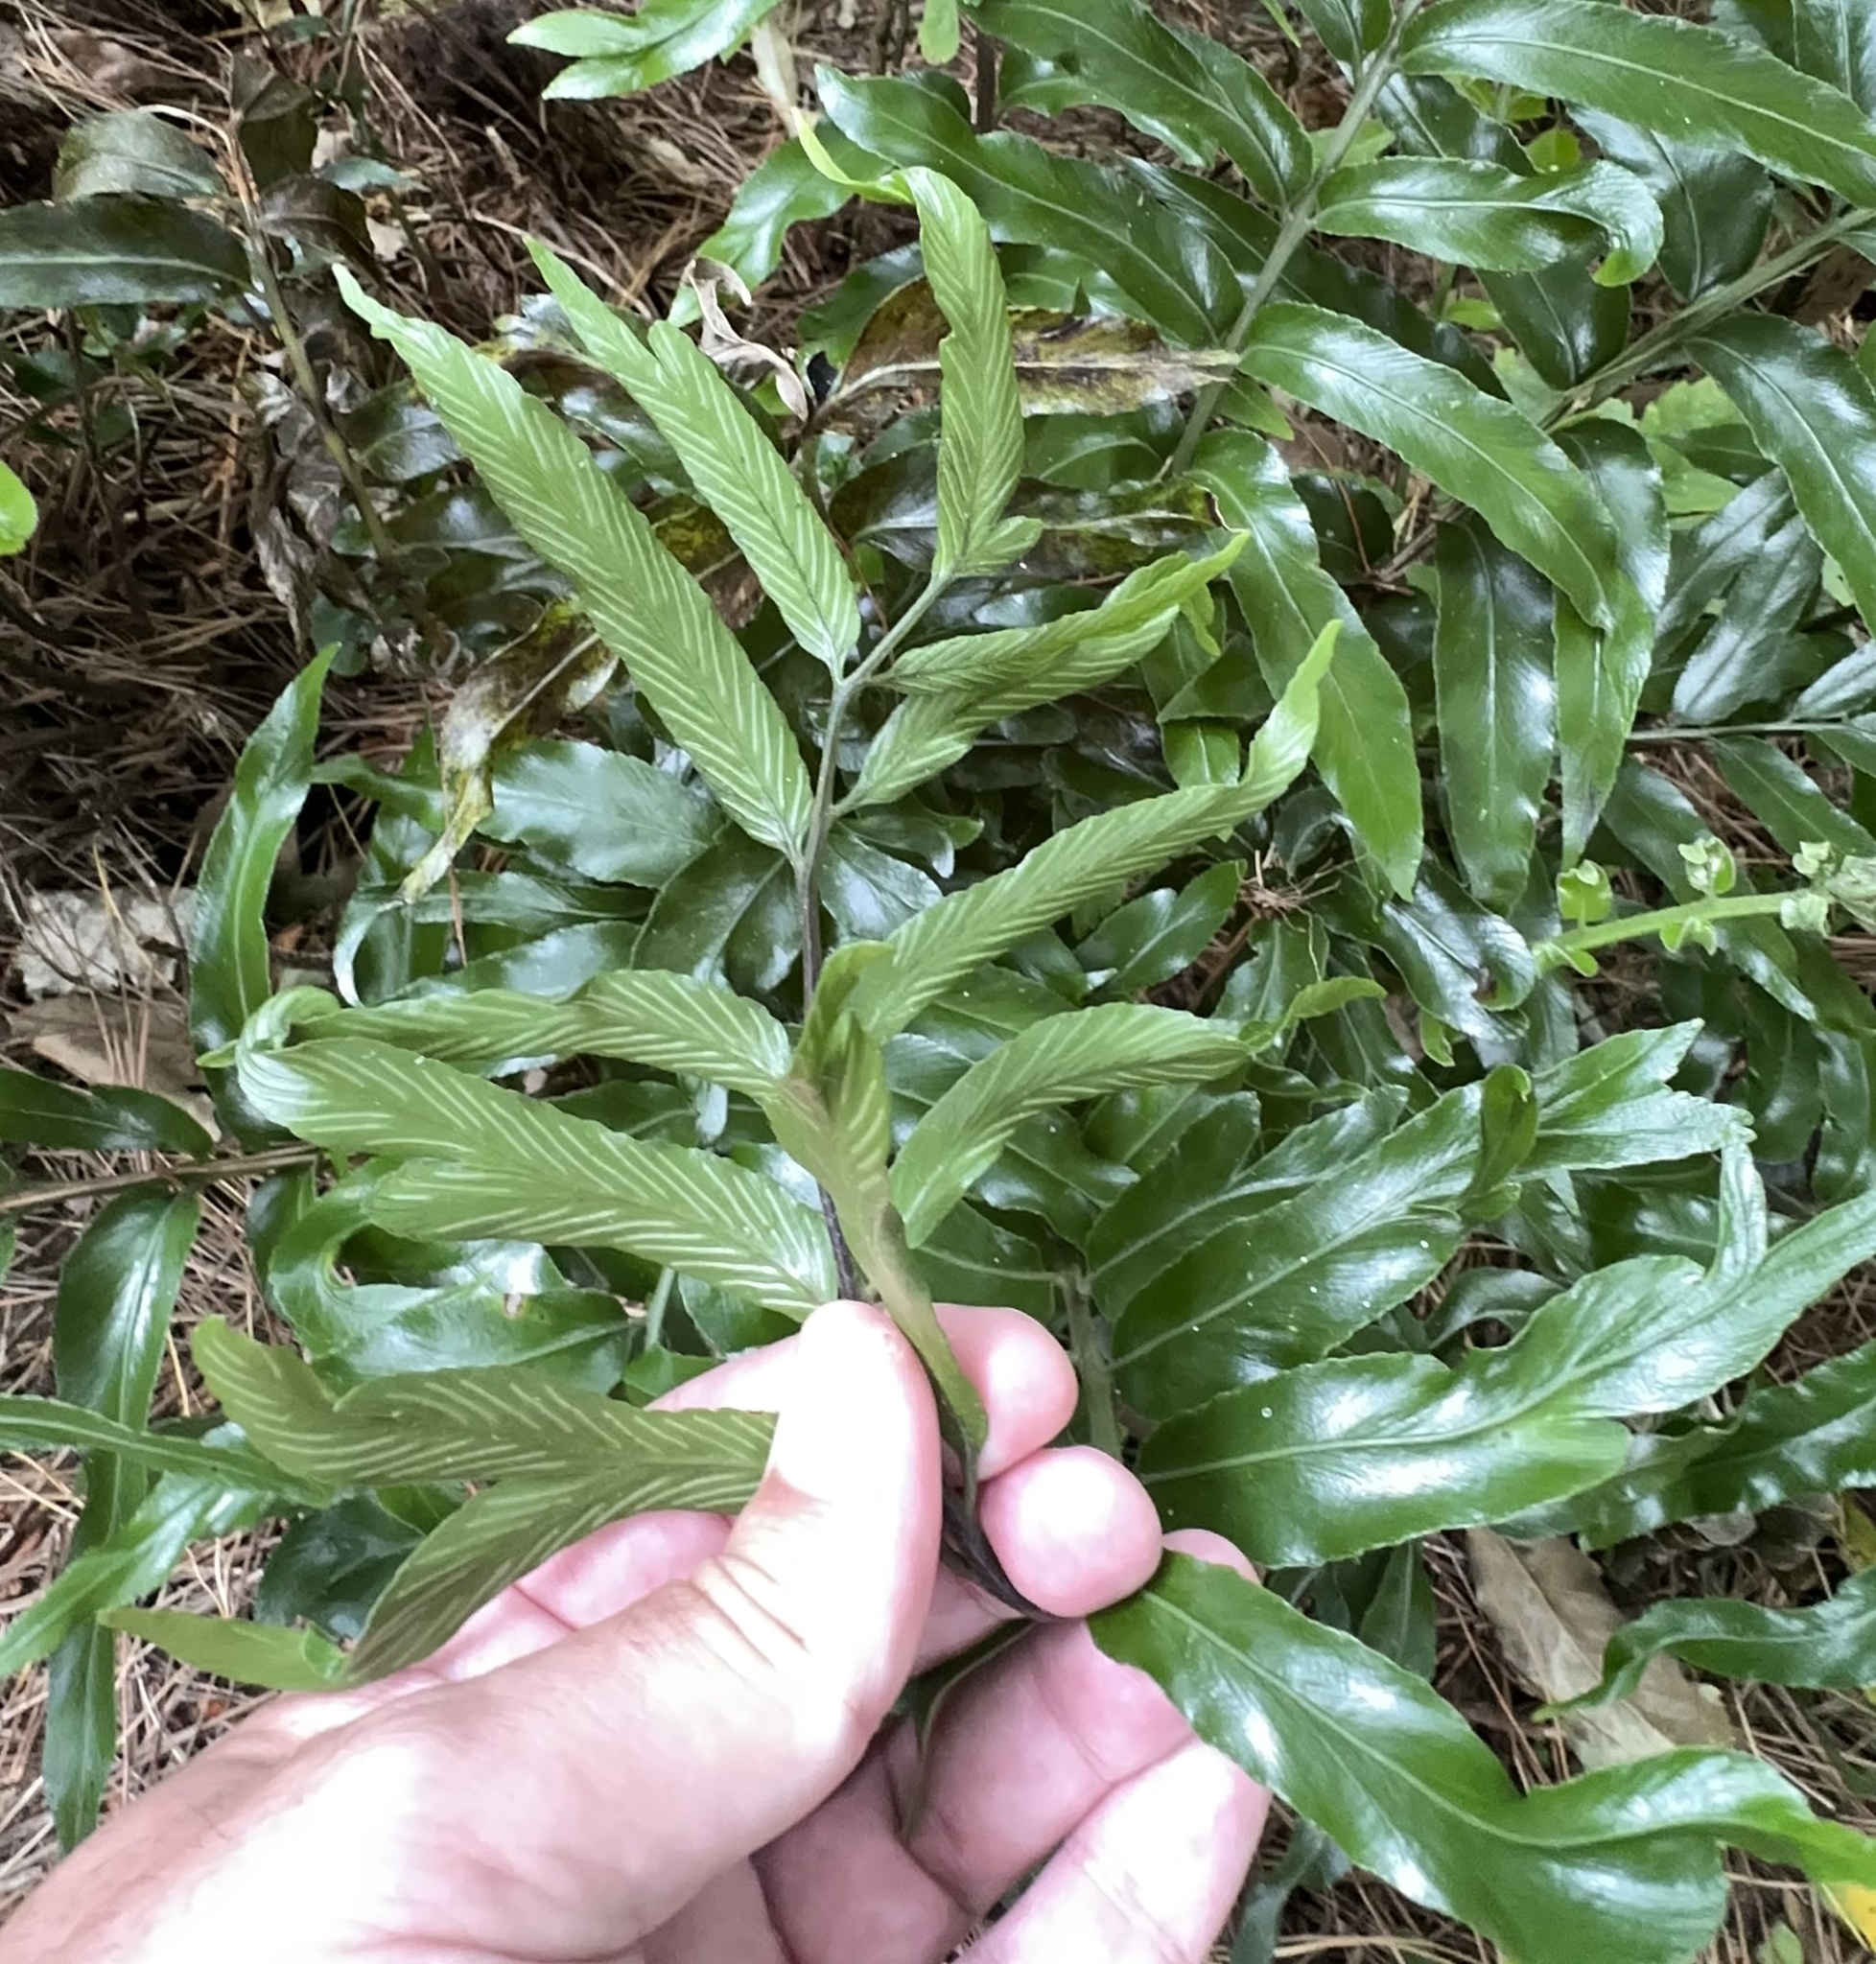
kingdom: Plantae
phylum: Tracheophyta
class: Polypodiopsida
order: Polypodiales
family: Aspleniaceae
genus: Asplenium
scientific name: Asplenium oblongifolium
